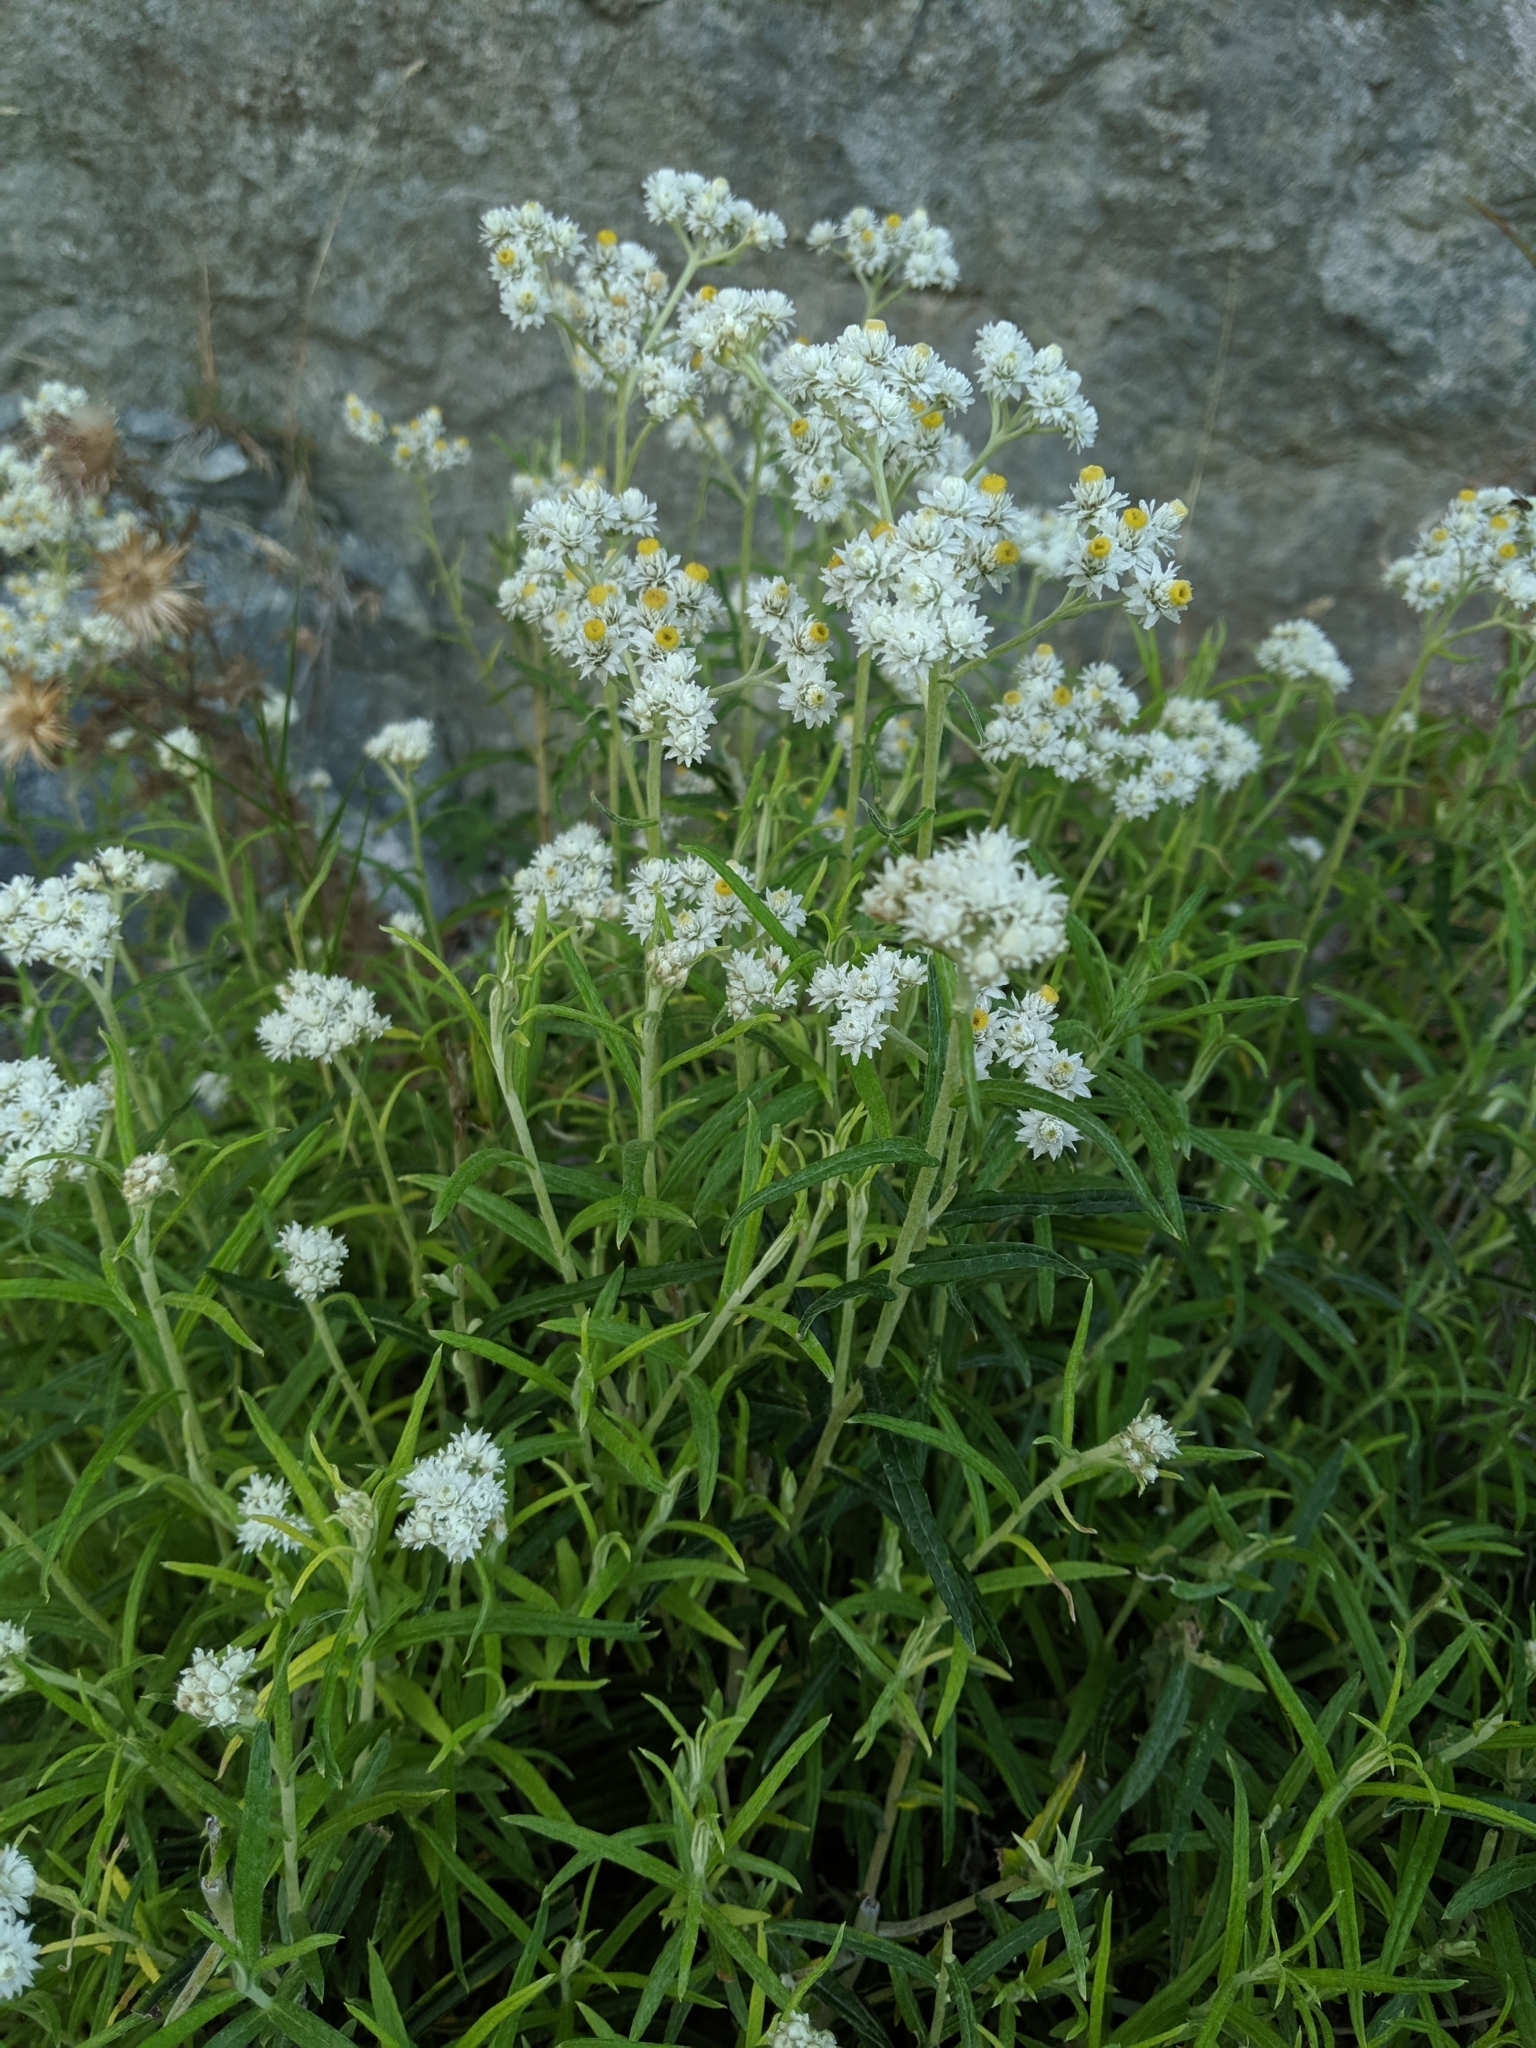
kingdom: Plantae
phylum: Tracheophyta
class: Magnoliopsida
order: Asterales
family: Asteraceae
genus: Anaphalis
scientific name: Anaphalis margaritacea
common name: Pearly everlasting
